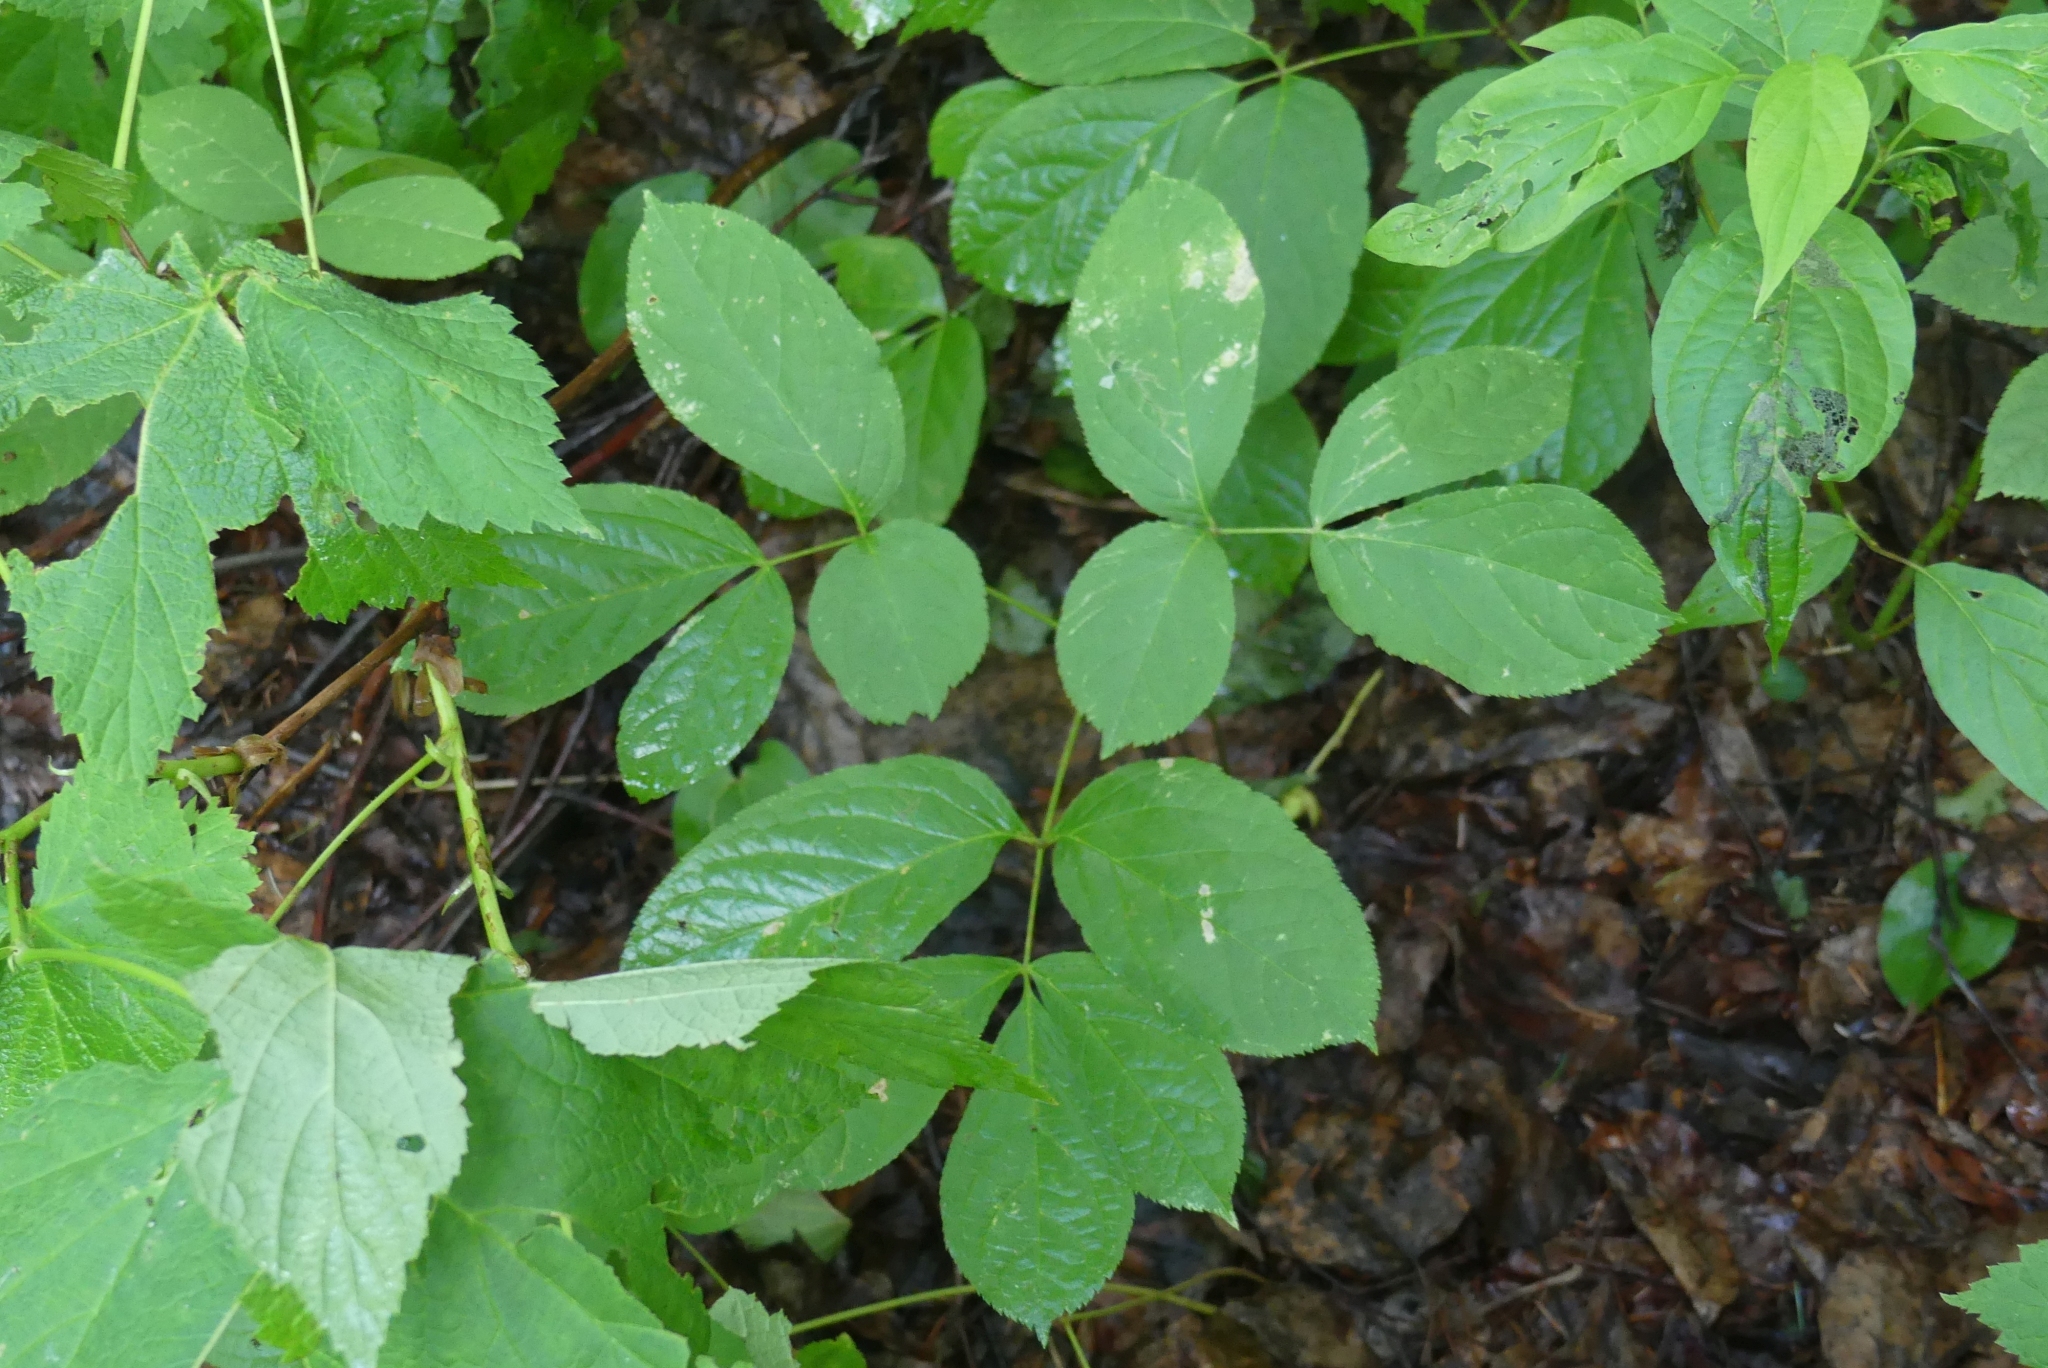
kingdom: Plantae
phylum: Tracheophyta
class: Magnoliopsida
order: Apiales
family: Araliaceae
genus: Aralia
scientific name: Aralia nudicaulis
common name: Wild sarsaparilla
